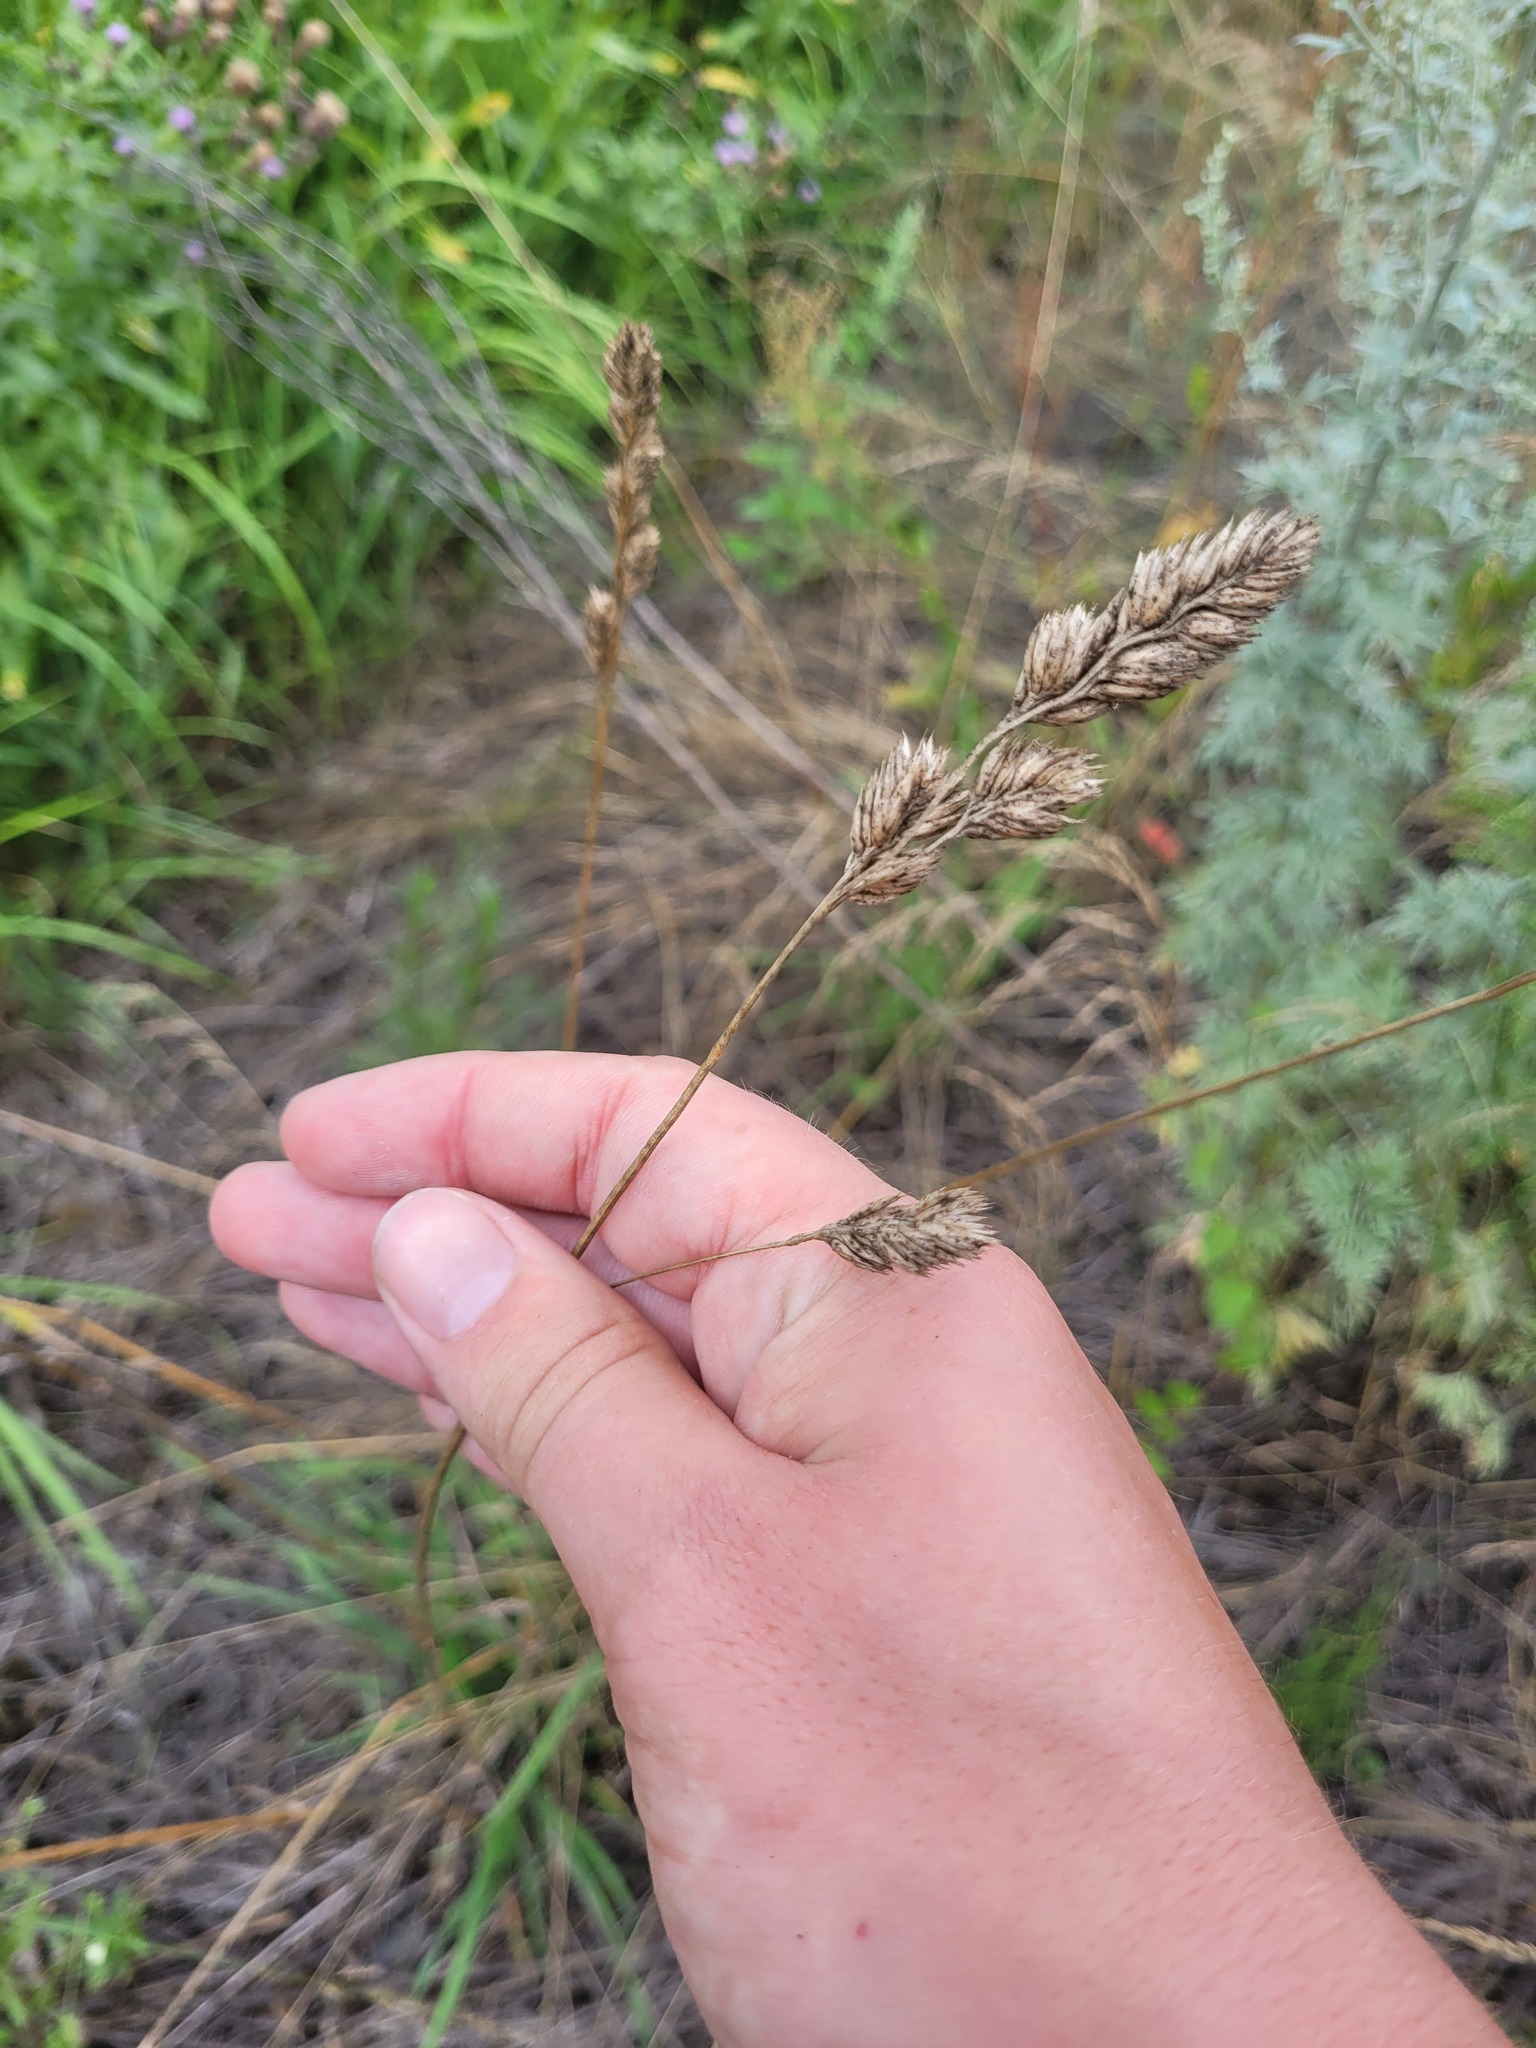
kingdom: Plantae
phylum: Tracheophyta
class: Liliopsida
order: Poales
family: Poaceae
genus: Dactylis
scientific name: Dactylis glomerata
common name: Orchardgrass
